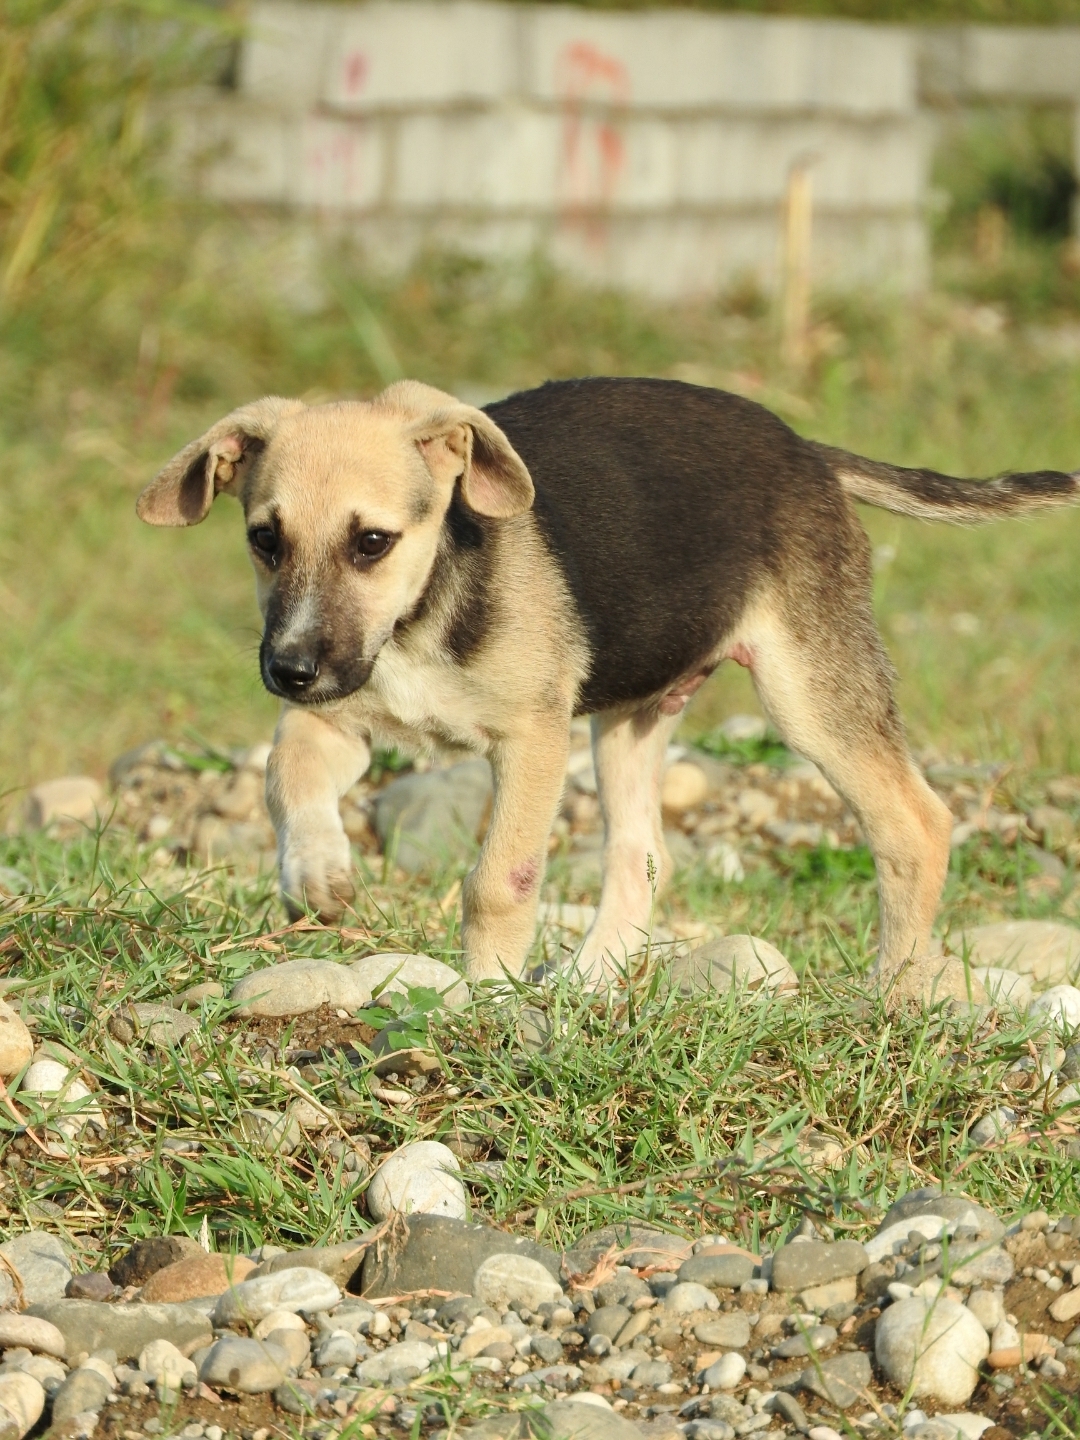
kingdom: Animalia
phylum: Chordata
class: Mammalia
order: Carnivora
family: Canidae
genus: Canis
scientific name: Canis lupus
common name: Gray wolf
